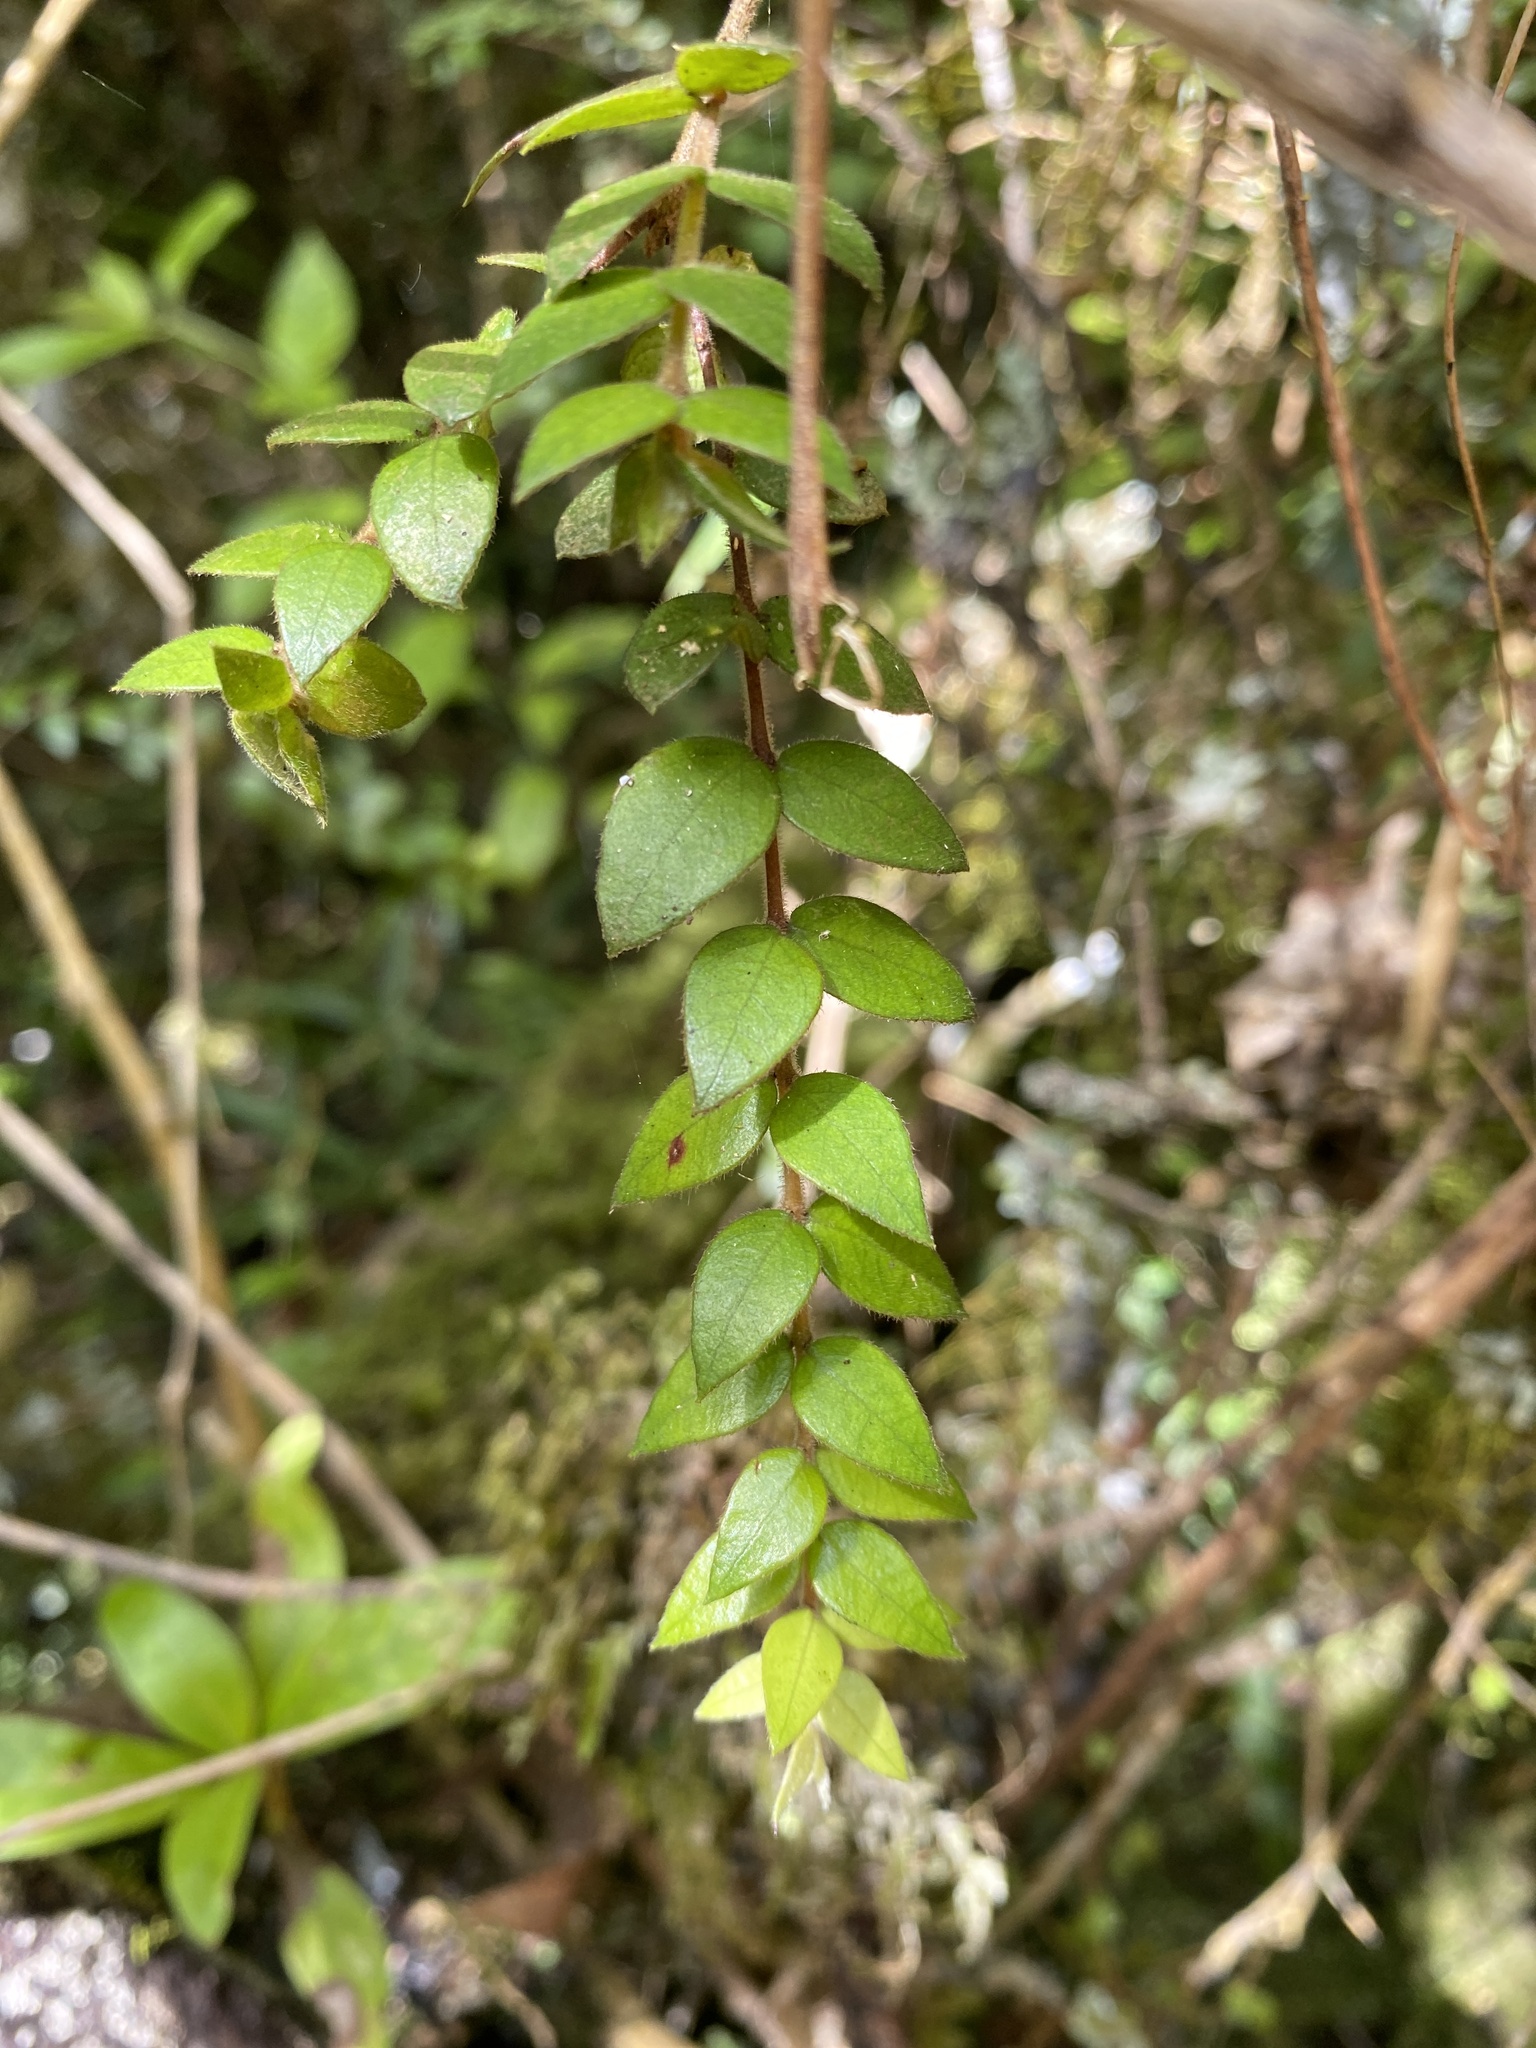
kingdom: Plantae
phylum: Tracheophyta
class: Magnoliopsida
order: Myrtales
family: Myrtaceae
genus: Metrosideros
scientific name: Metrosideros colensoi
